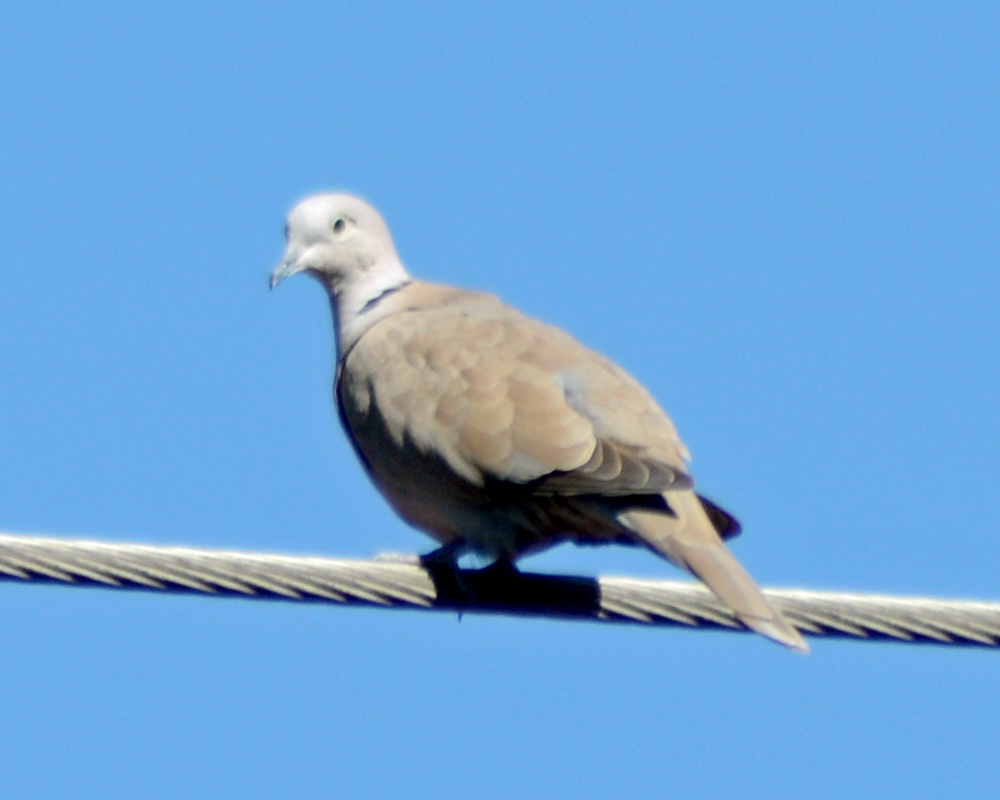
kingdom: Animalia
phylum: Chordata
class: Aves
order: Columbiformes
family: Columbidae
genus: Streptopelia
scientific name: Streptopelia decaocto
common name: Eurasian collared dove
